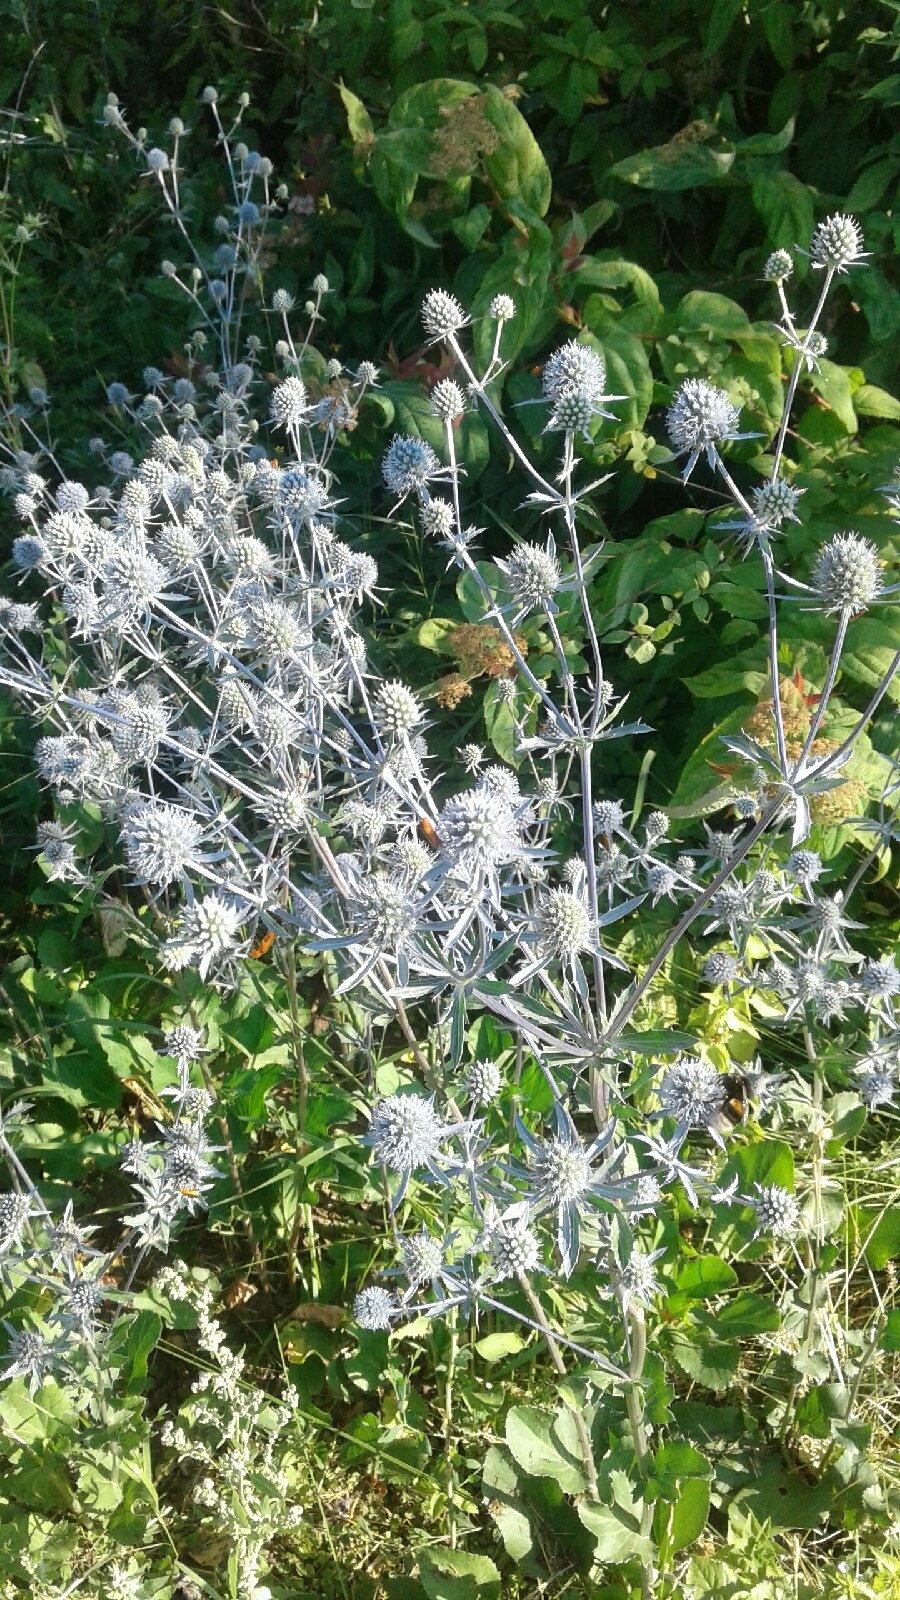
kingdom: Plantae
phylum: Tracheophyta
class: Magnoliopsida
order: Apiales
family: Apiaceae
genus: Eryngium
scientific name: Eryngium planum
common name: Blue eryngo
